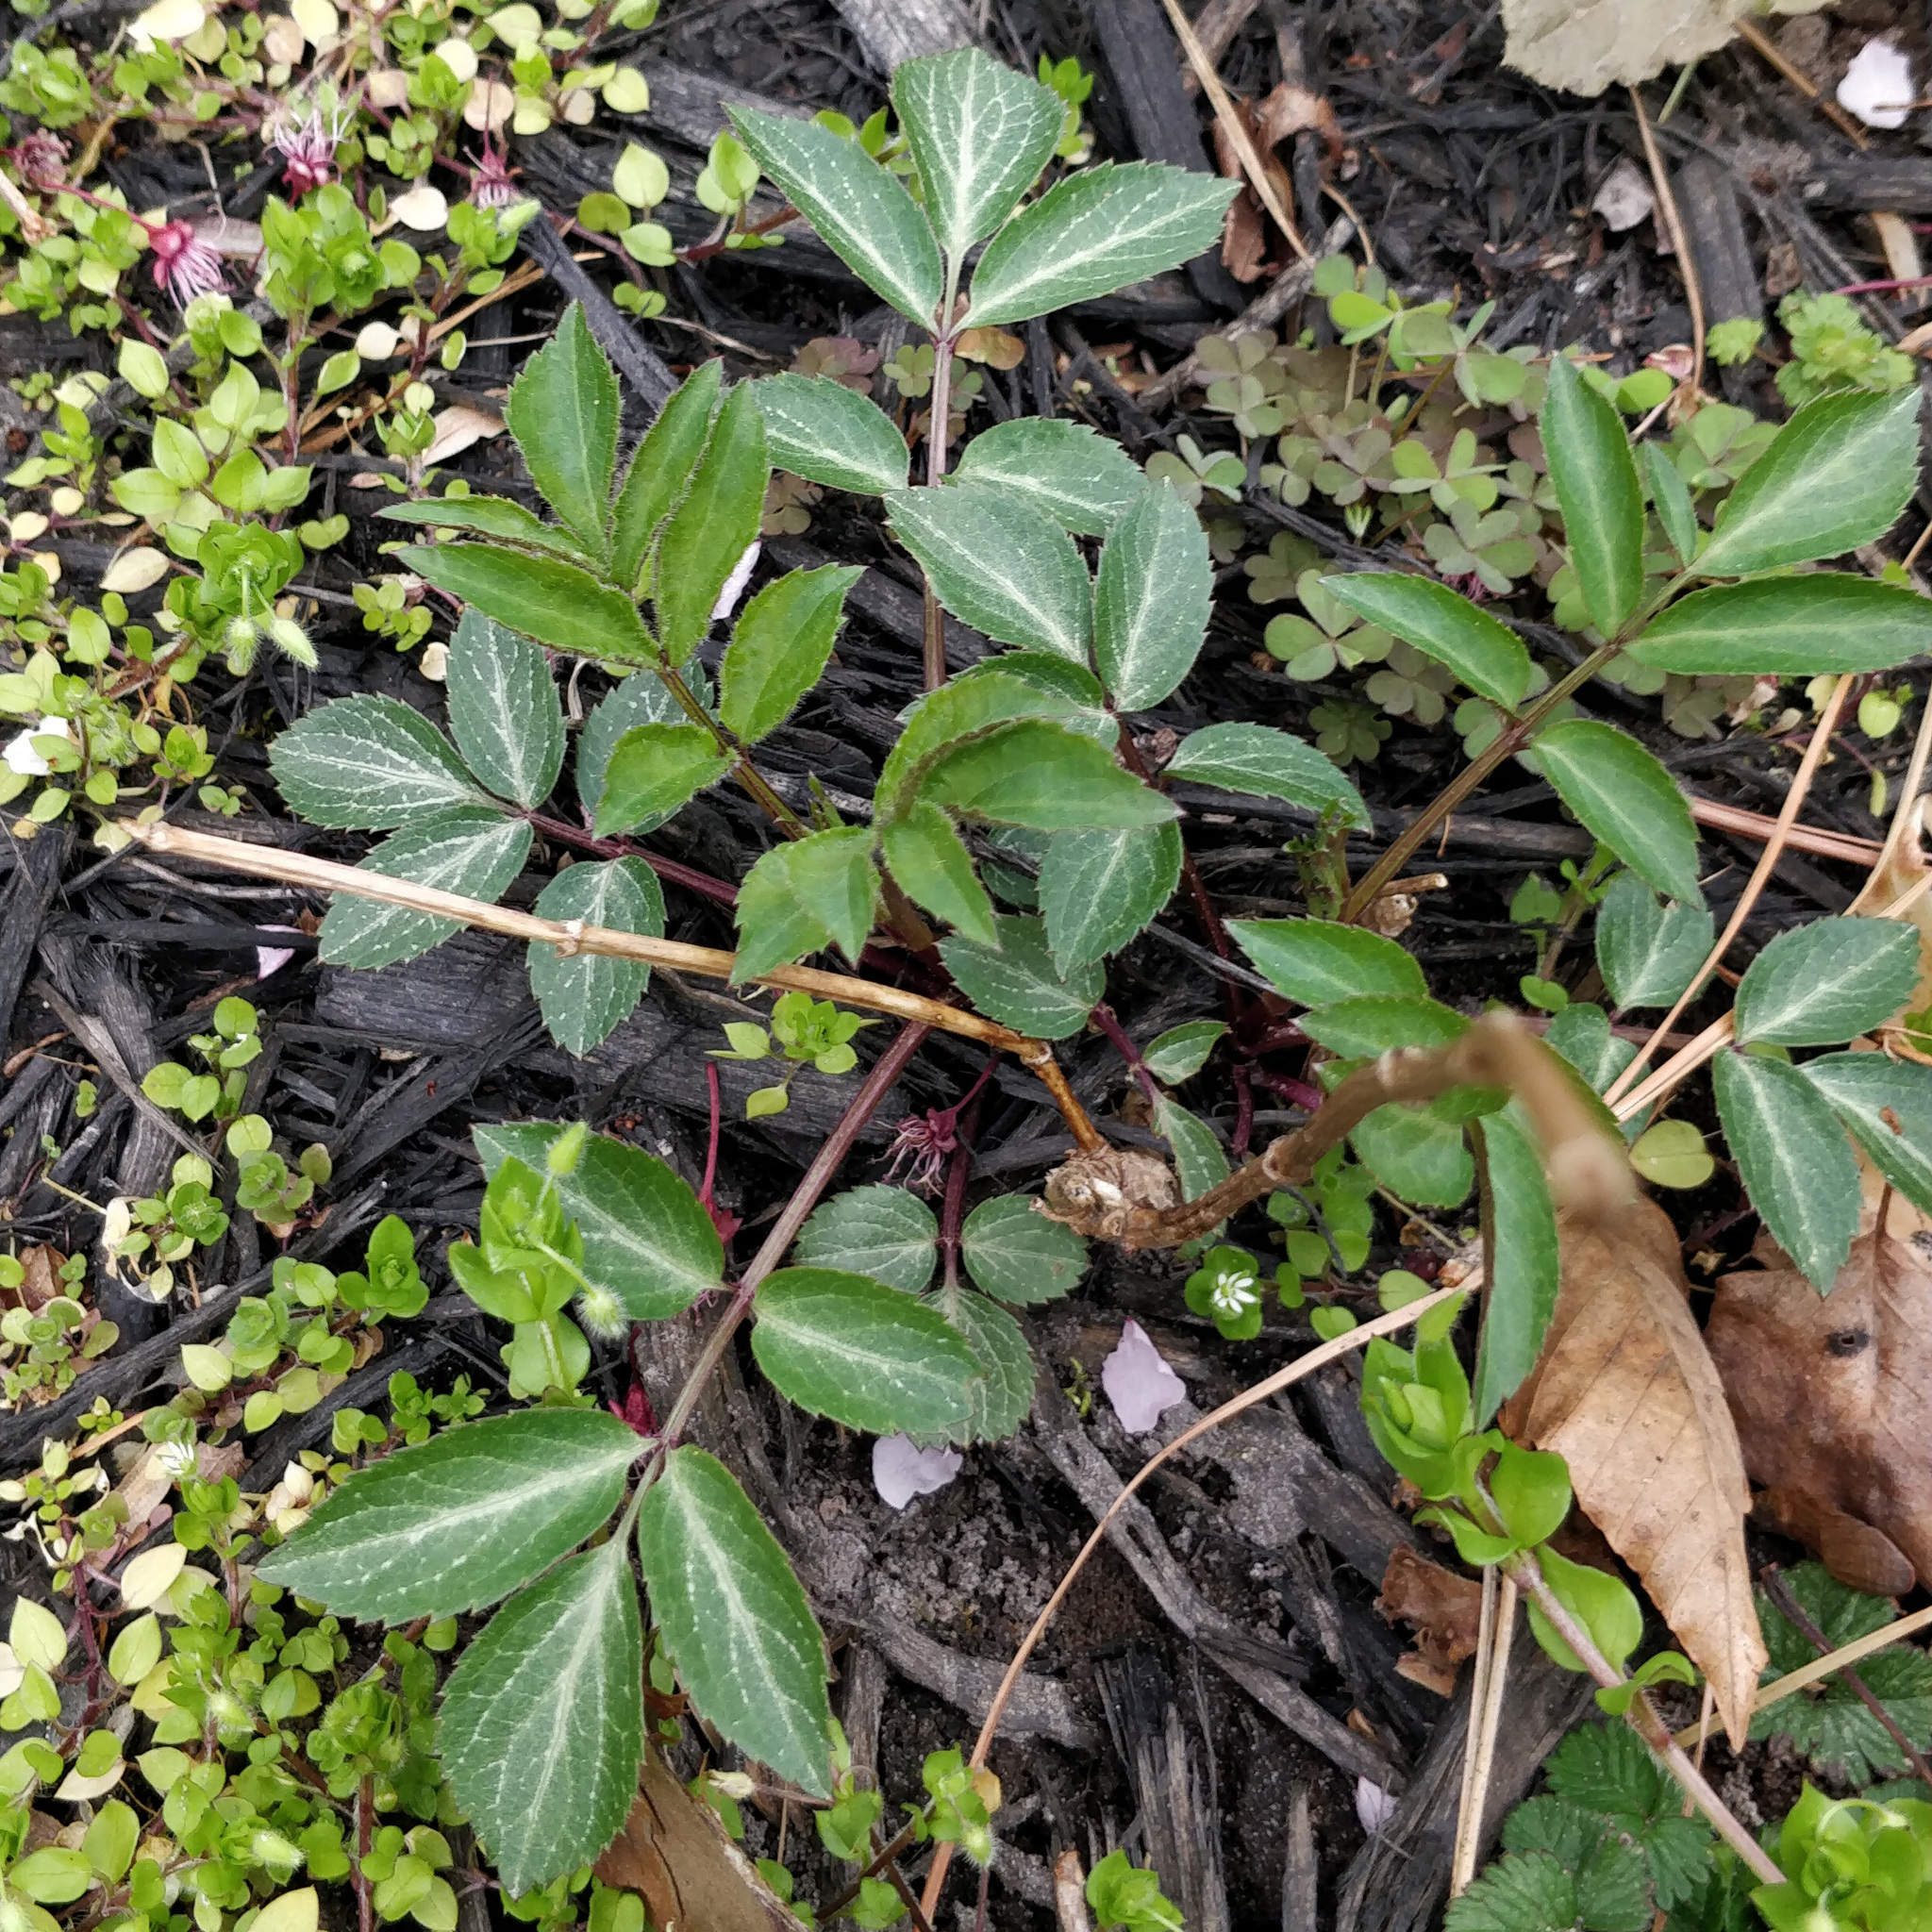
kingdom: Plantae
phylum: Tracheophyta
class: Magnoliopsida
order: Dipsacales
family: Viburnaceae
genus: Sambucus
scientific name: Sambucus canadensis
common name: American elder
